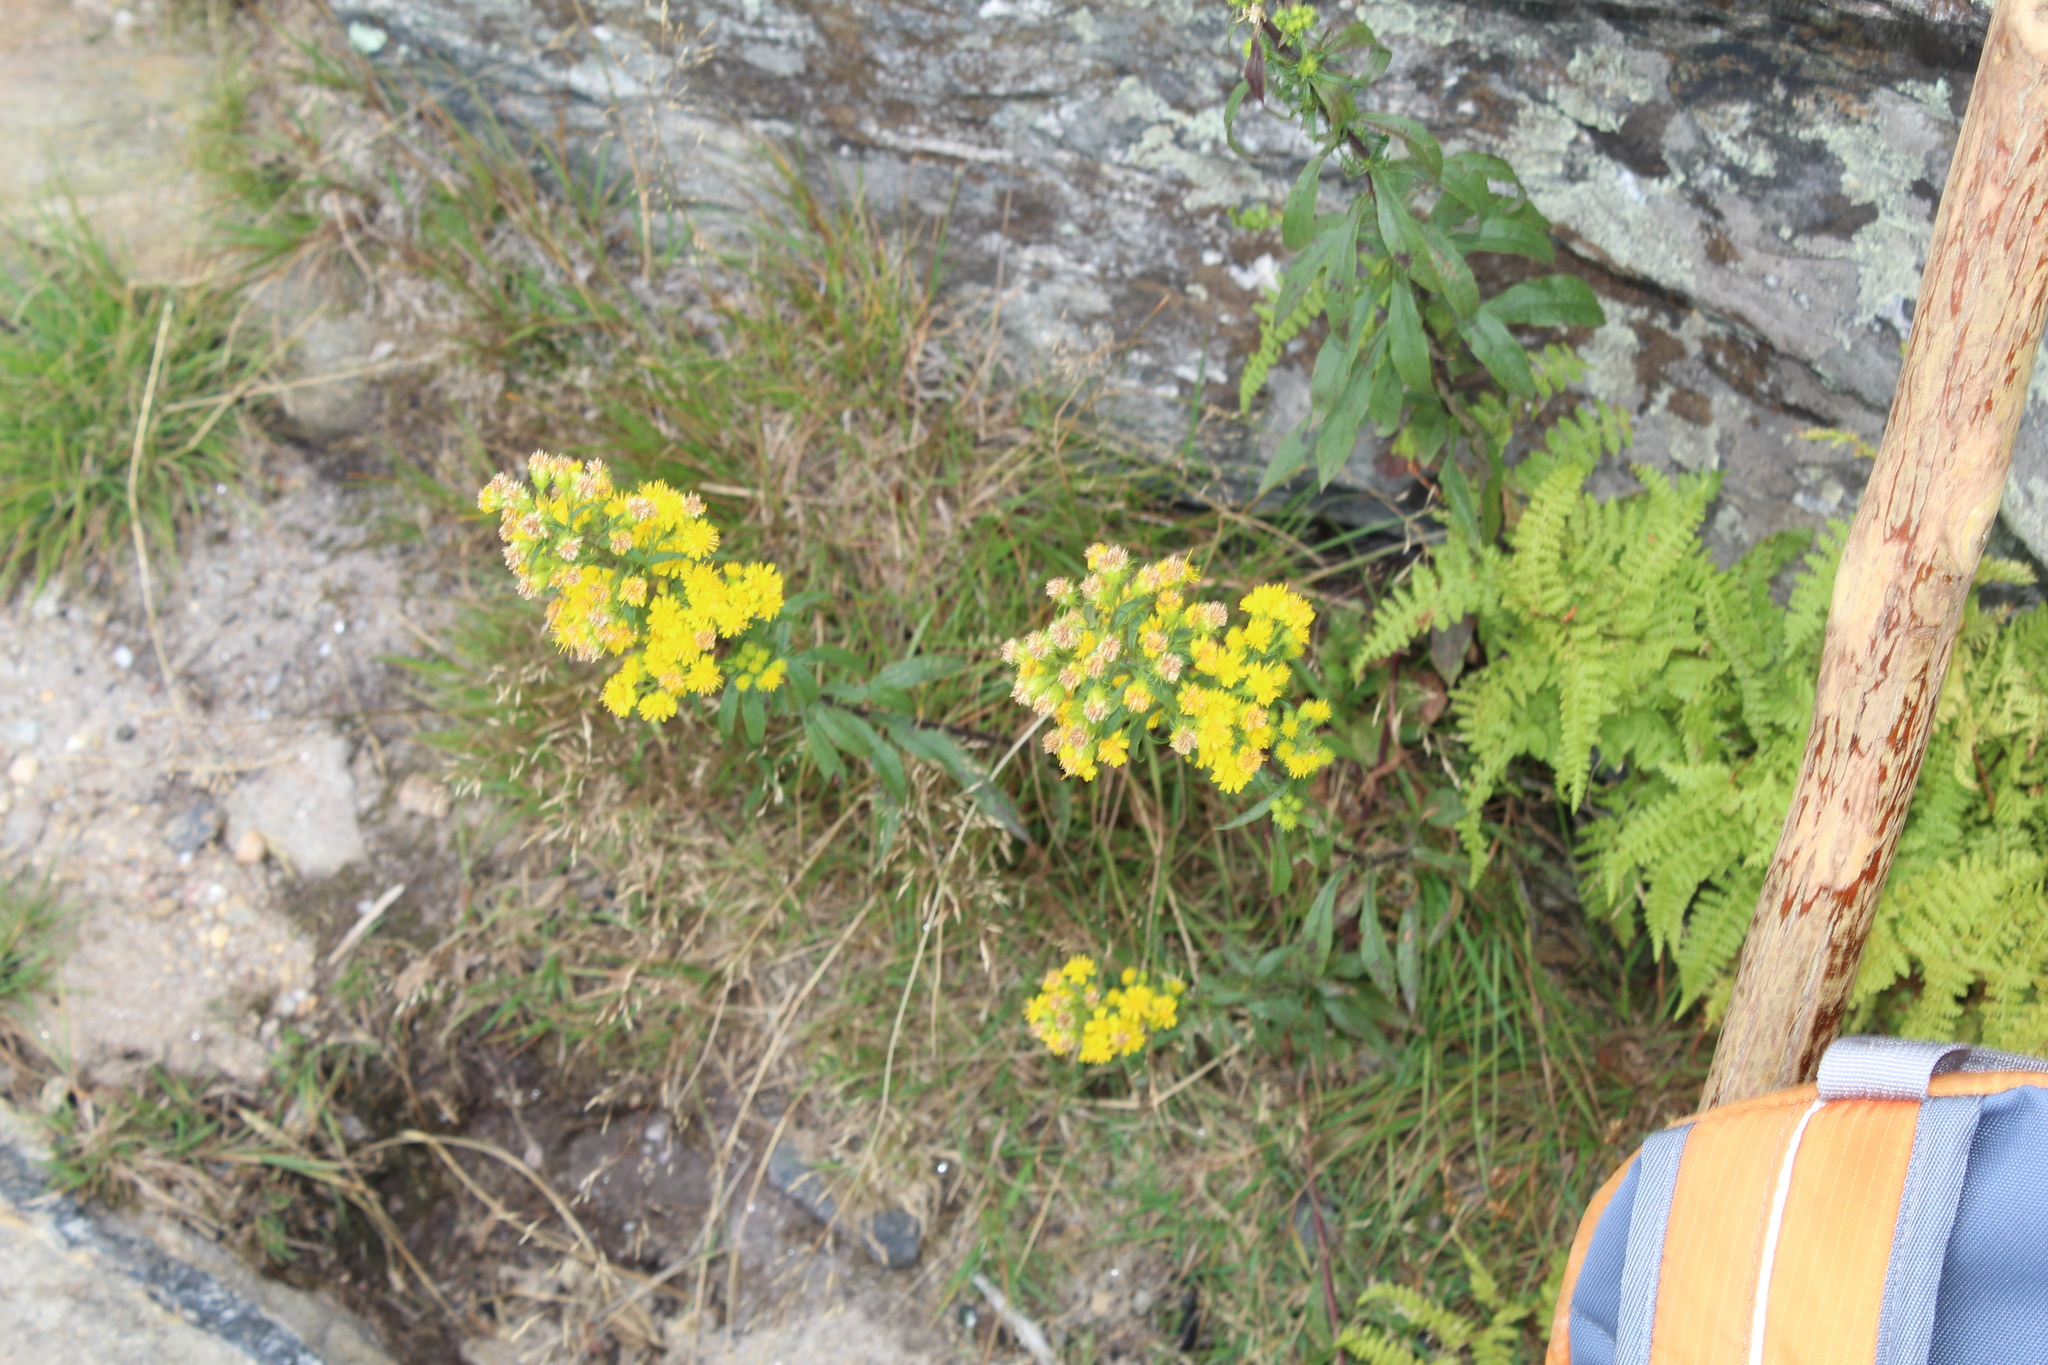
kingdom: Plantae
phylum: Tracheophyta
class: Magnoliopsida
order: Asterales
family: Asteraceae
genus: Solidago
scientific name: Solidago squarrosa
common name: Stout goldenrod
